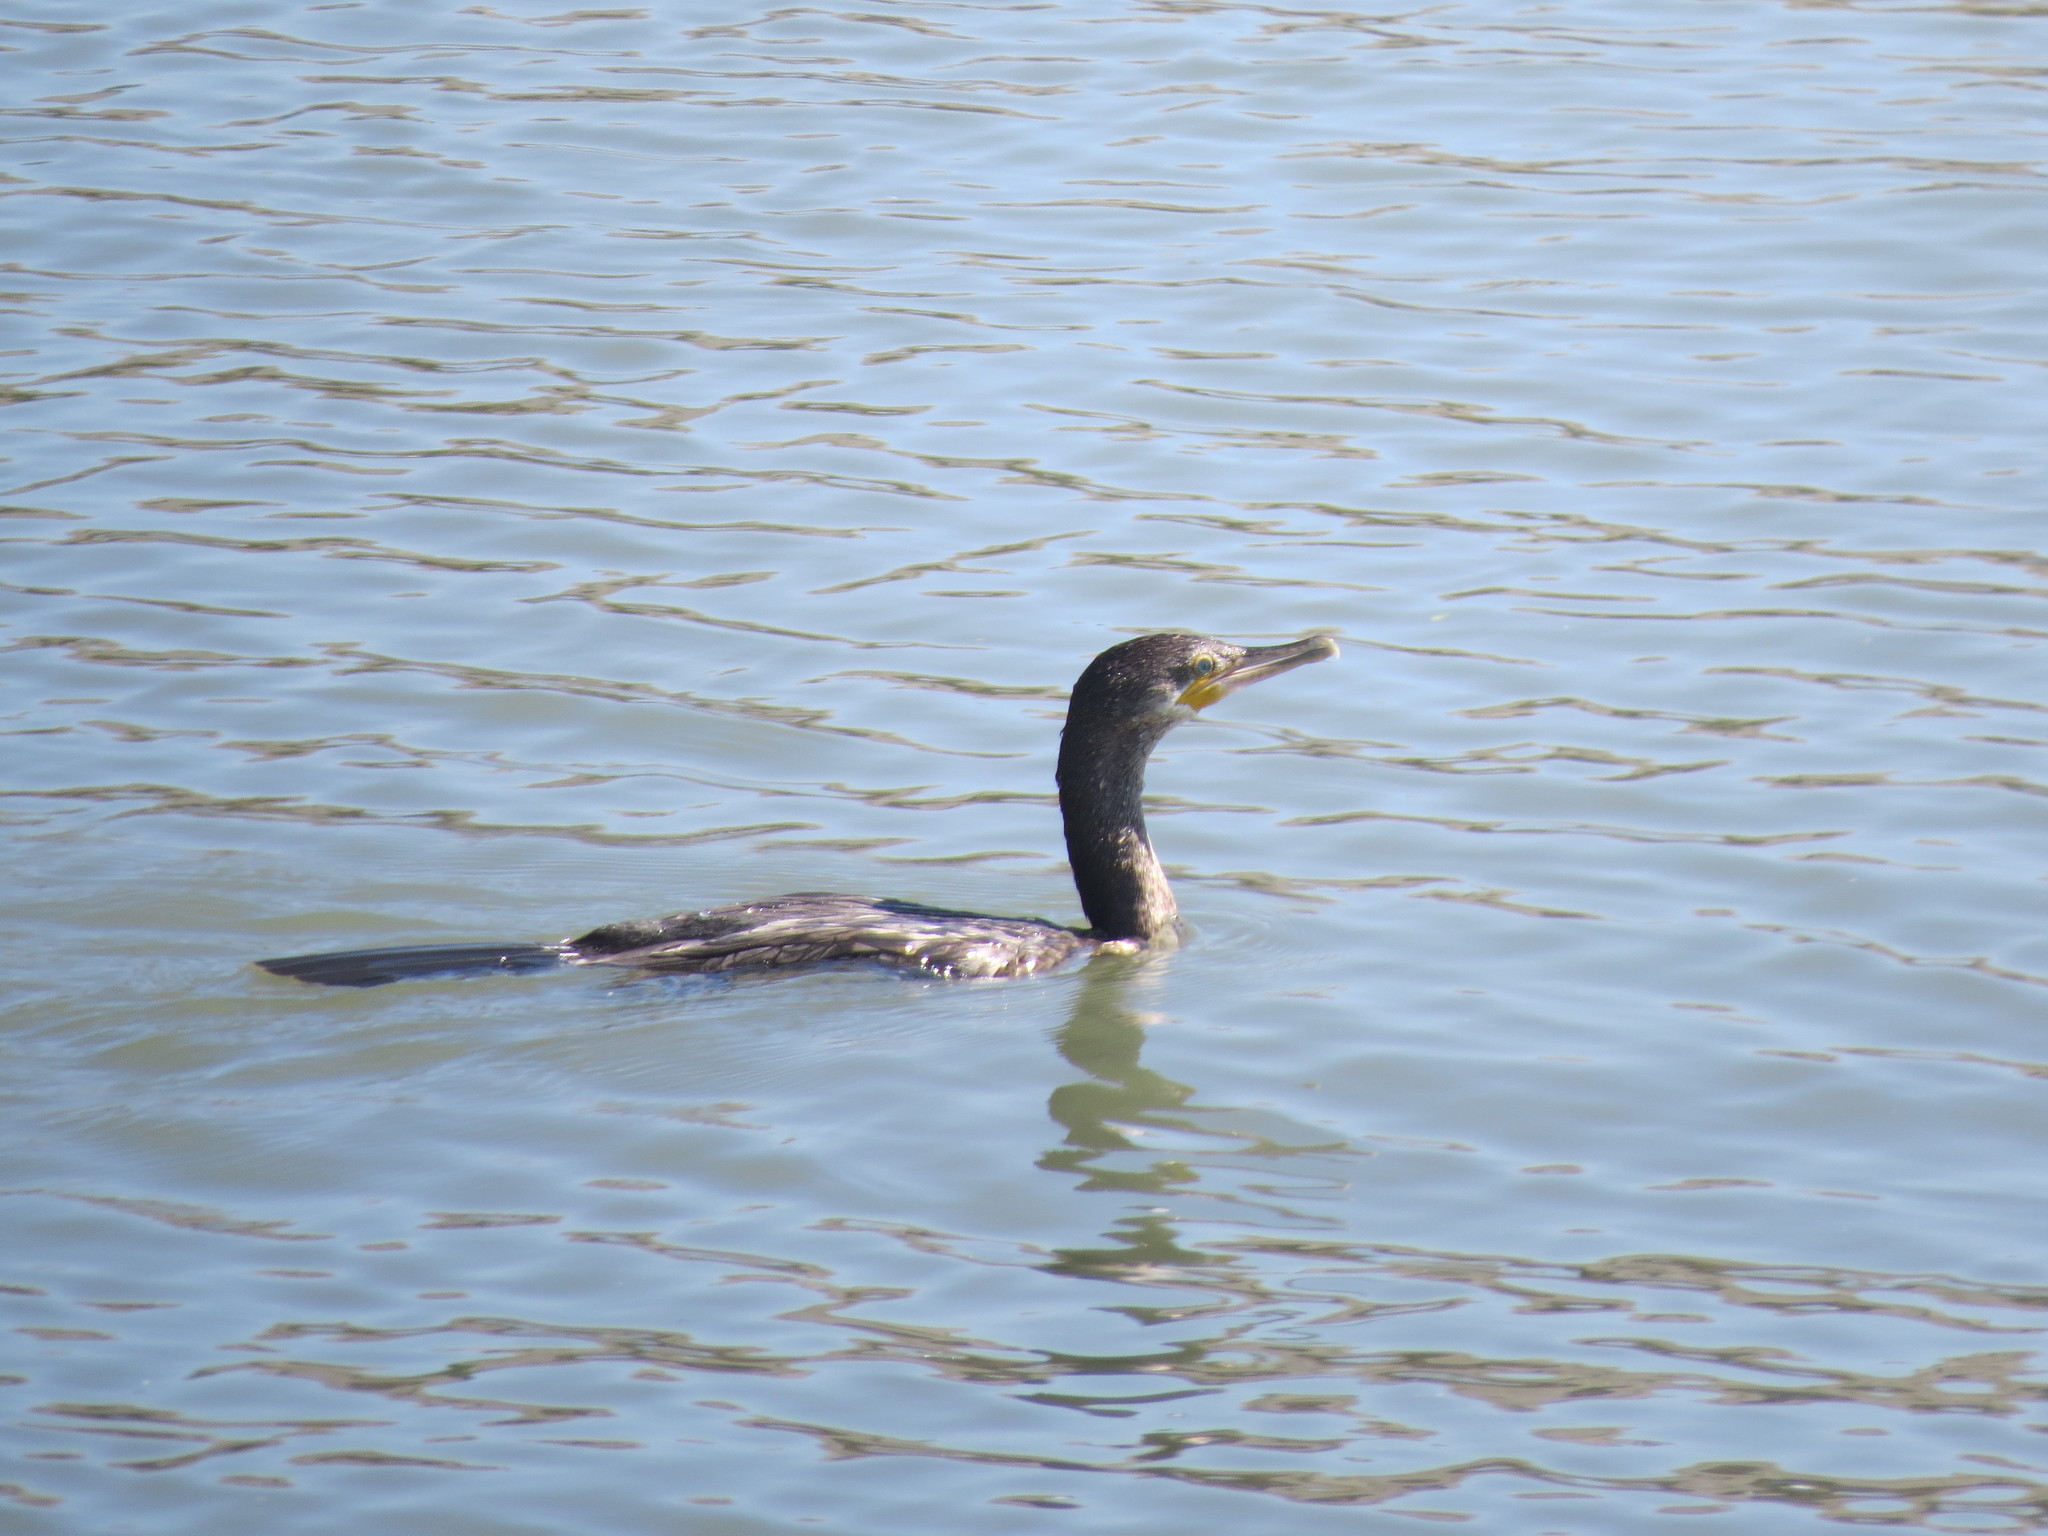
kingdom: Animalia
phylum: Chordata
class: Aves
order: Suliformes
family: Phalacrocoracidae
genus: Phalacrocorax
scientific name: Phalacrocorax brasilianus
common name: Neotropic cormorant
